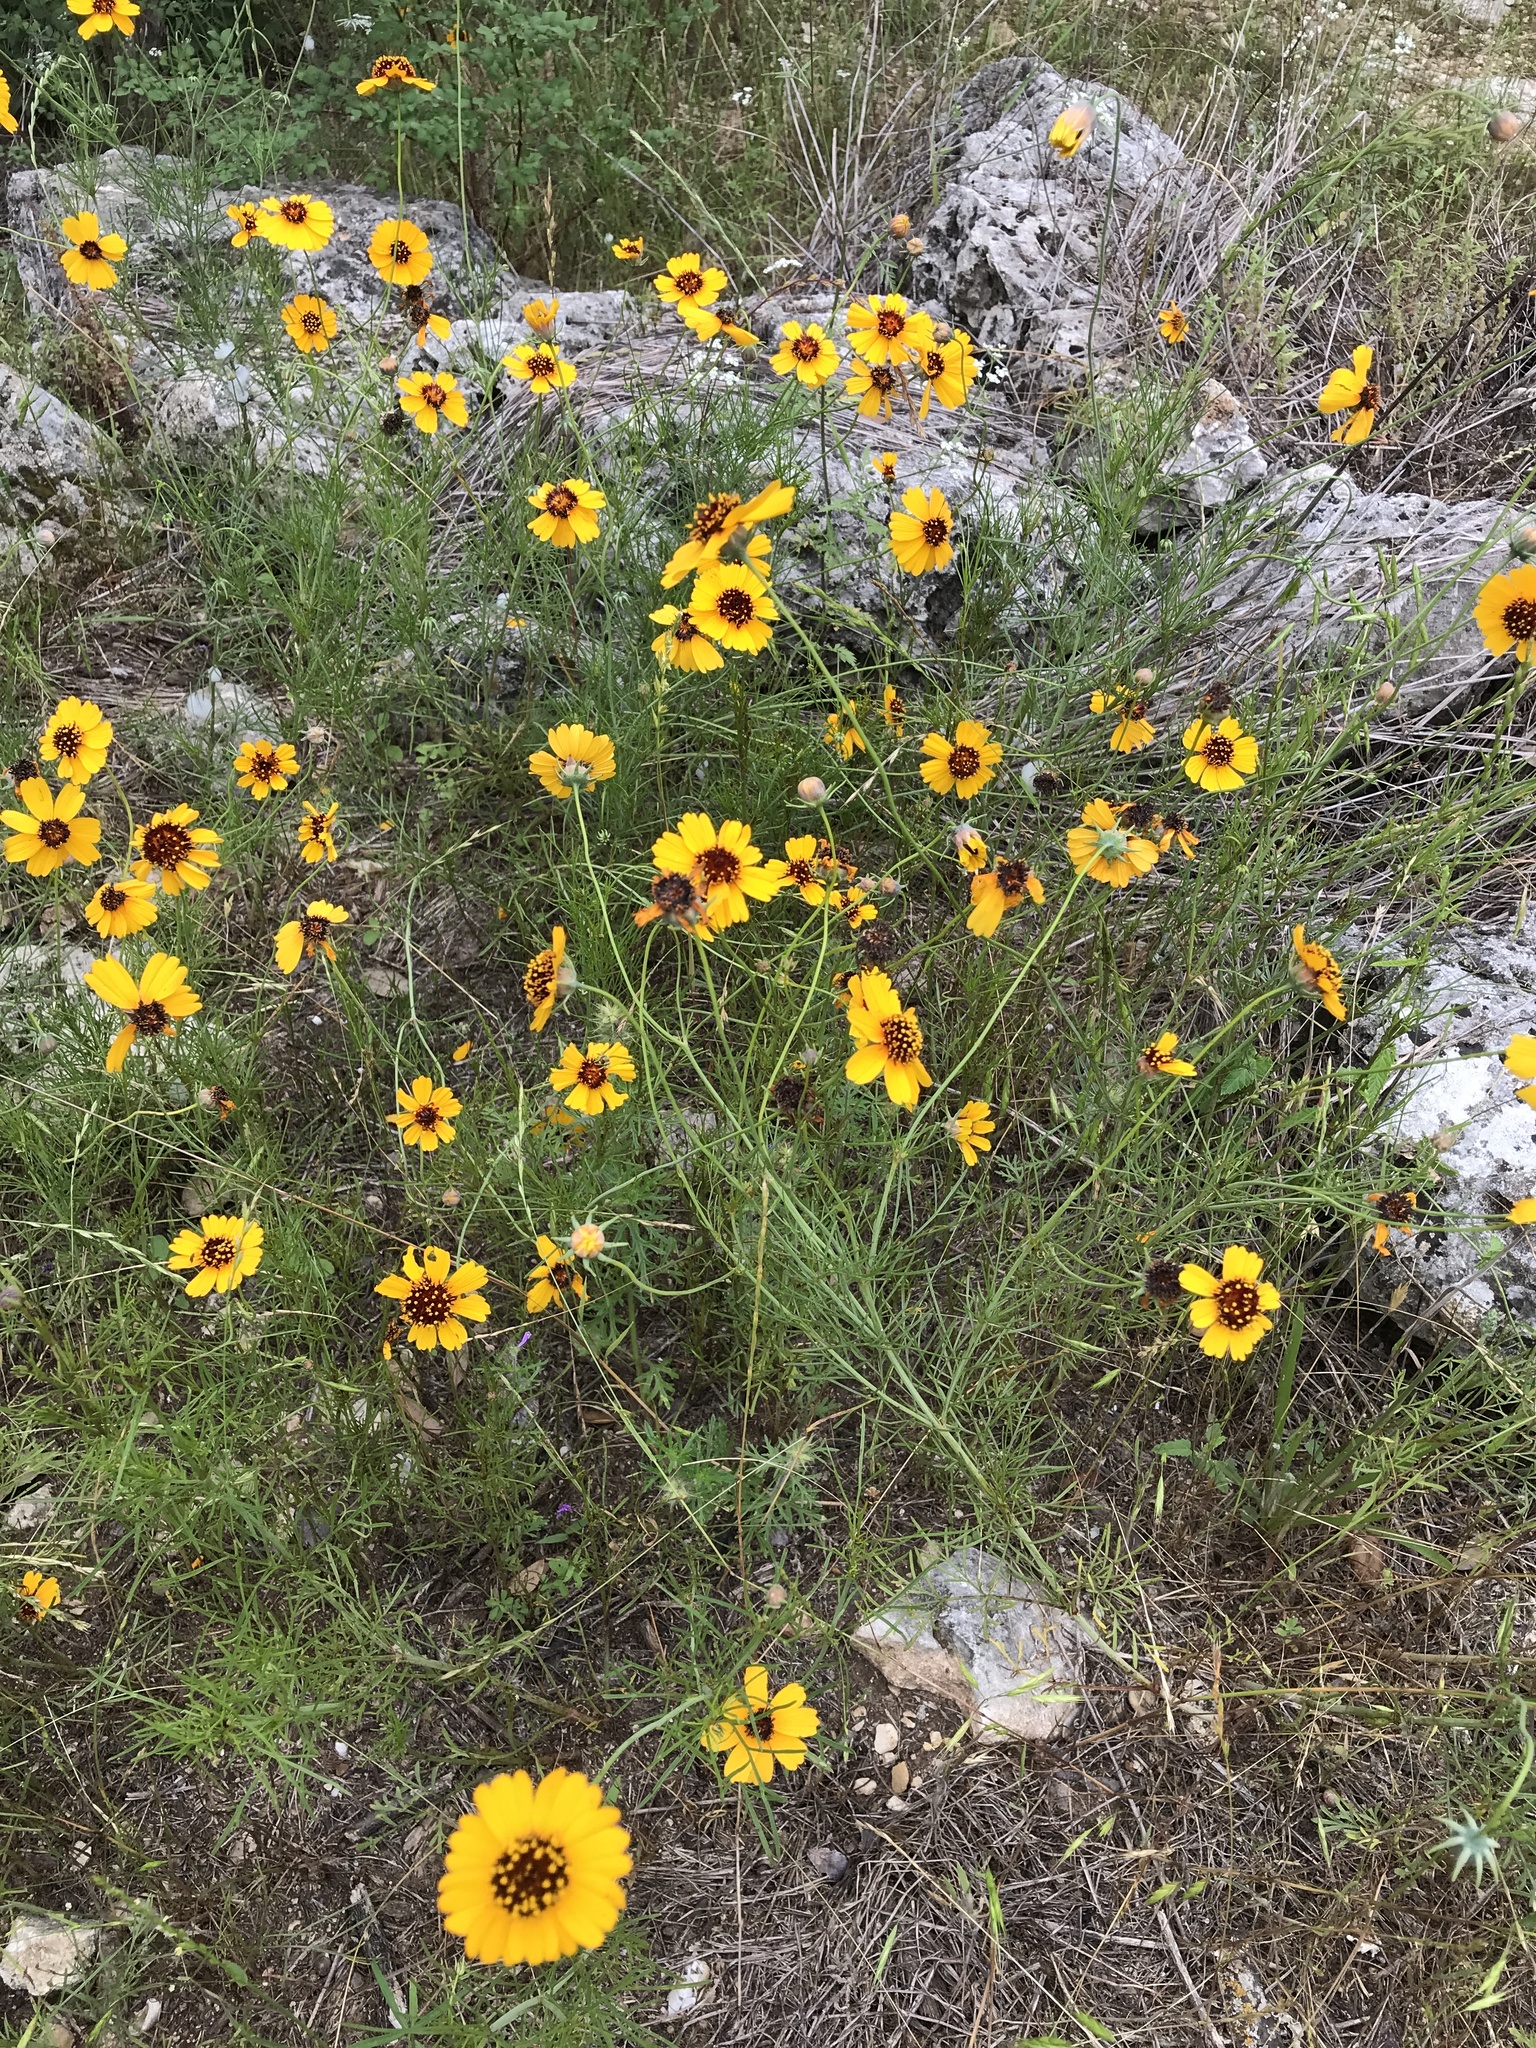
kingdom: Plantae
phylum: Tracheophyta
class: Magnoliopsida
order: Asterales
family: Asteraceae
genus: Thelesperma
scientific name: Thelesperma filifolium
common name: Stiff greenthread
